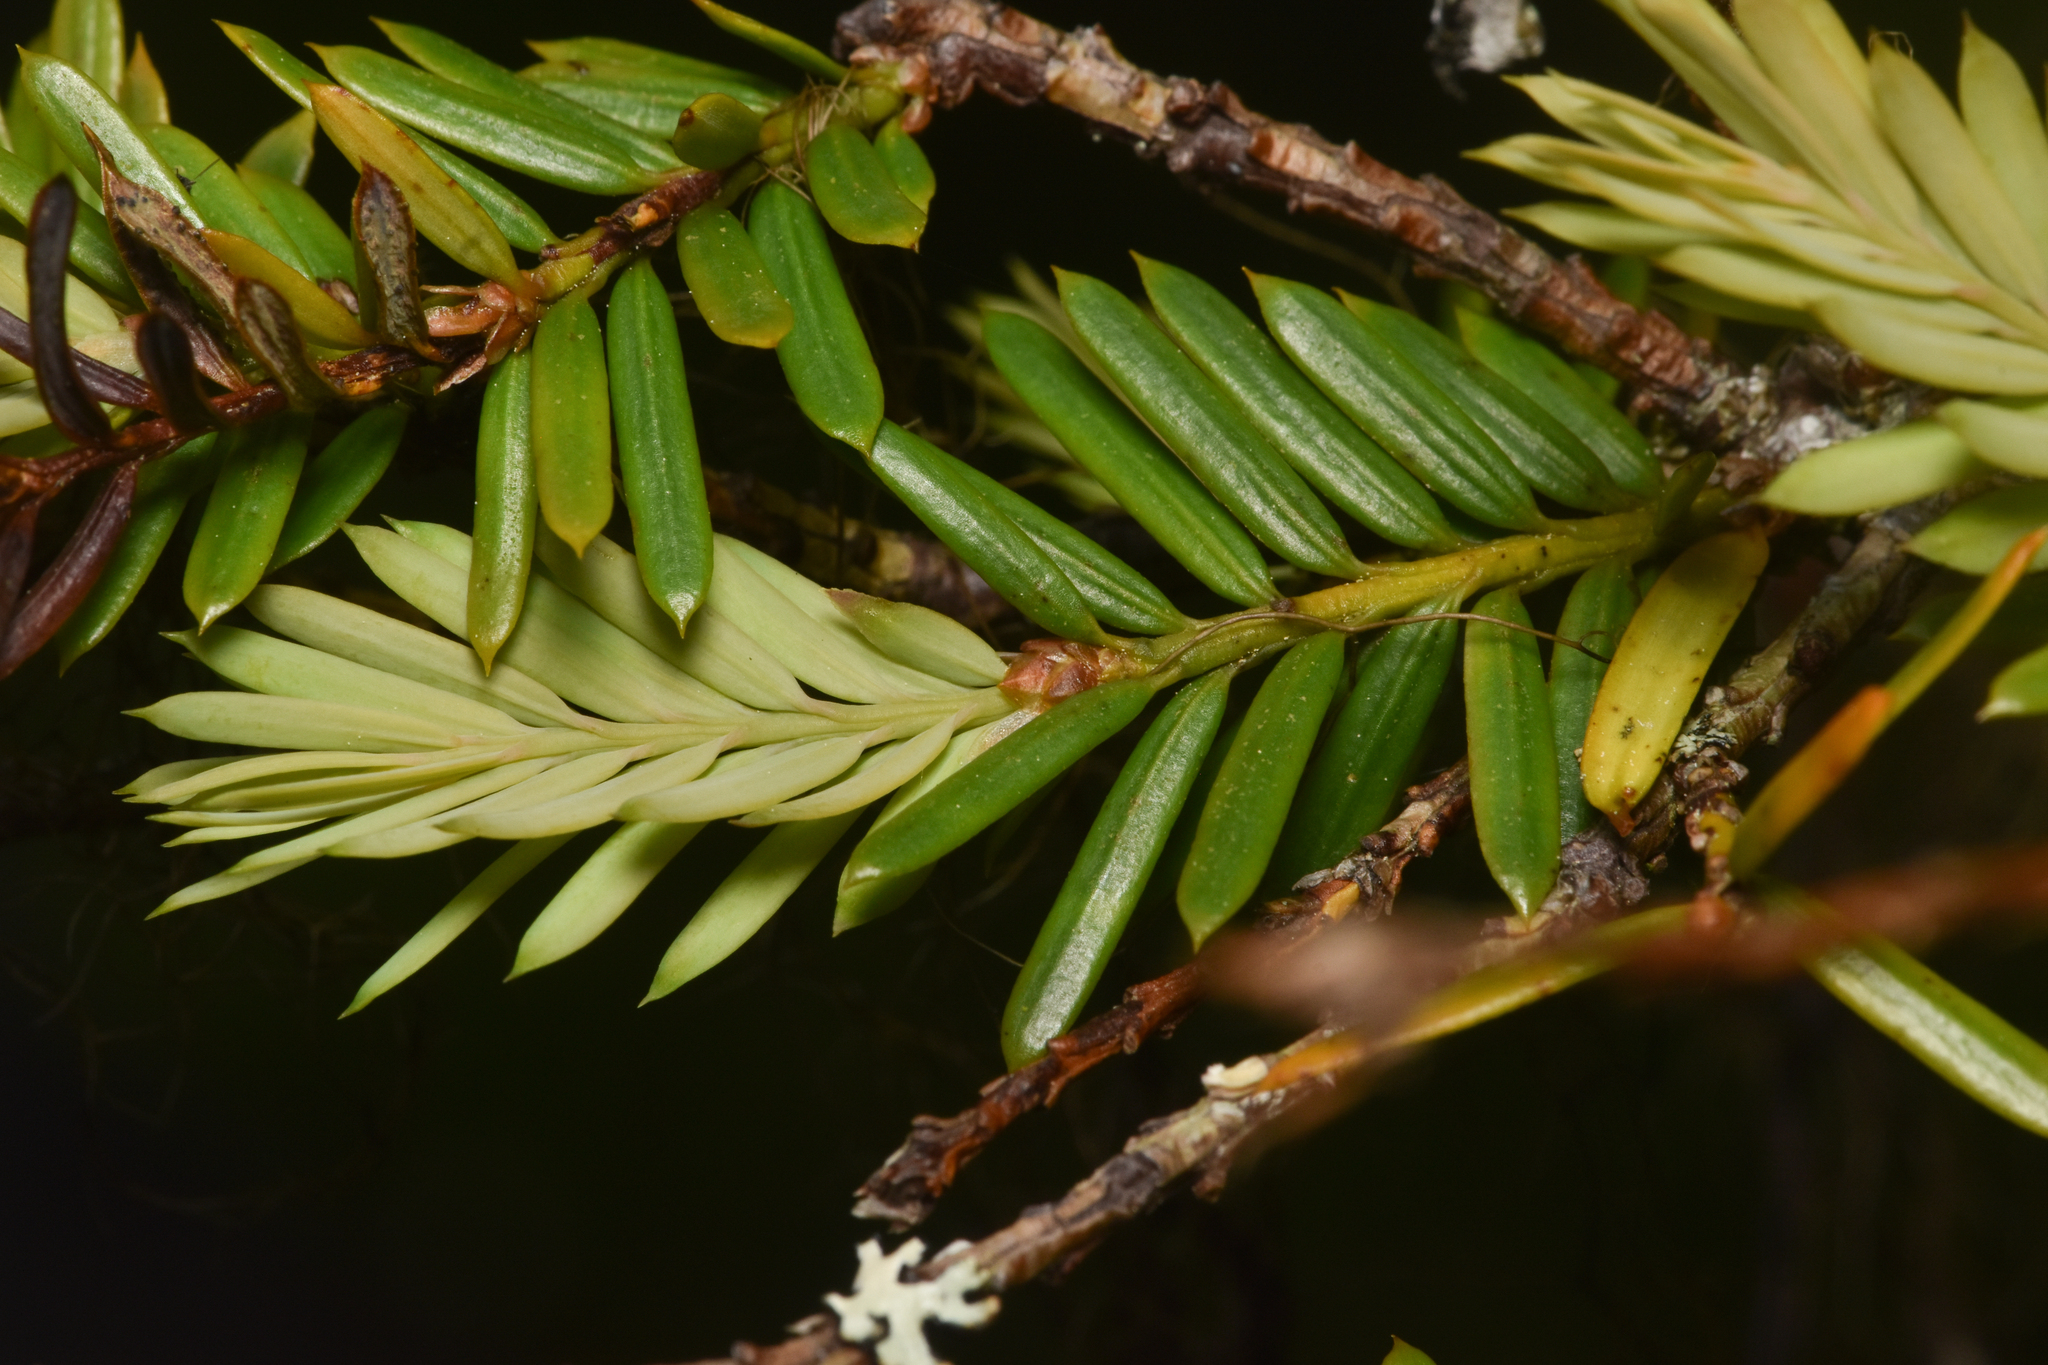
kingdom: Plantae
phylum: Tracheophyta
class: Pinopsida
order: Pinales
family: Taxaceae
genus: Taxus
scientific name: Taxus brevifolia
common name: Pacific yew
